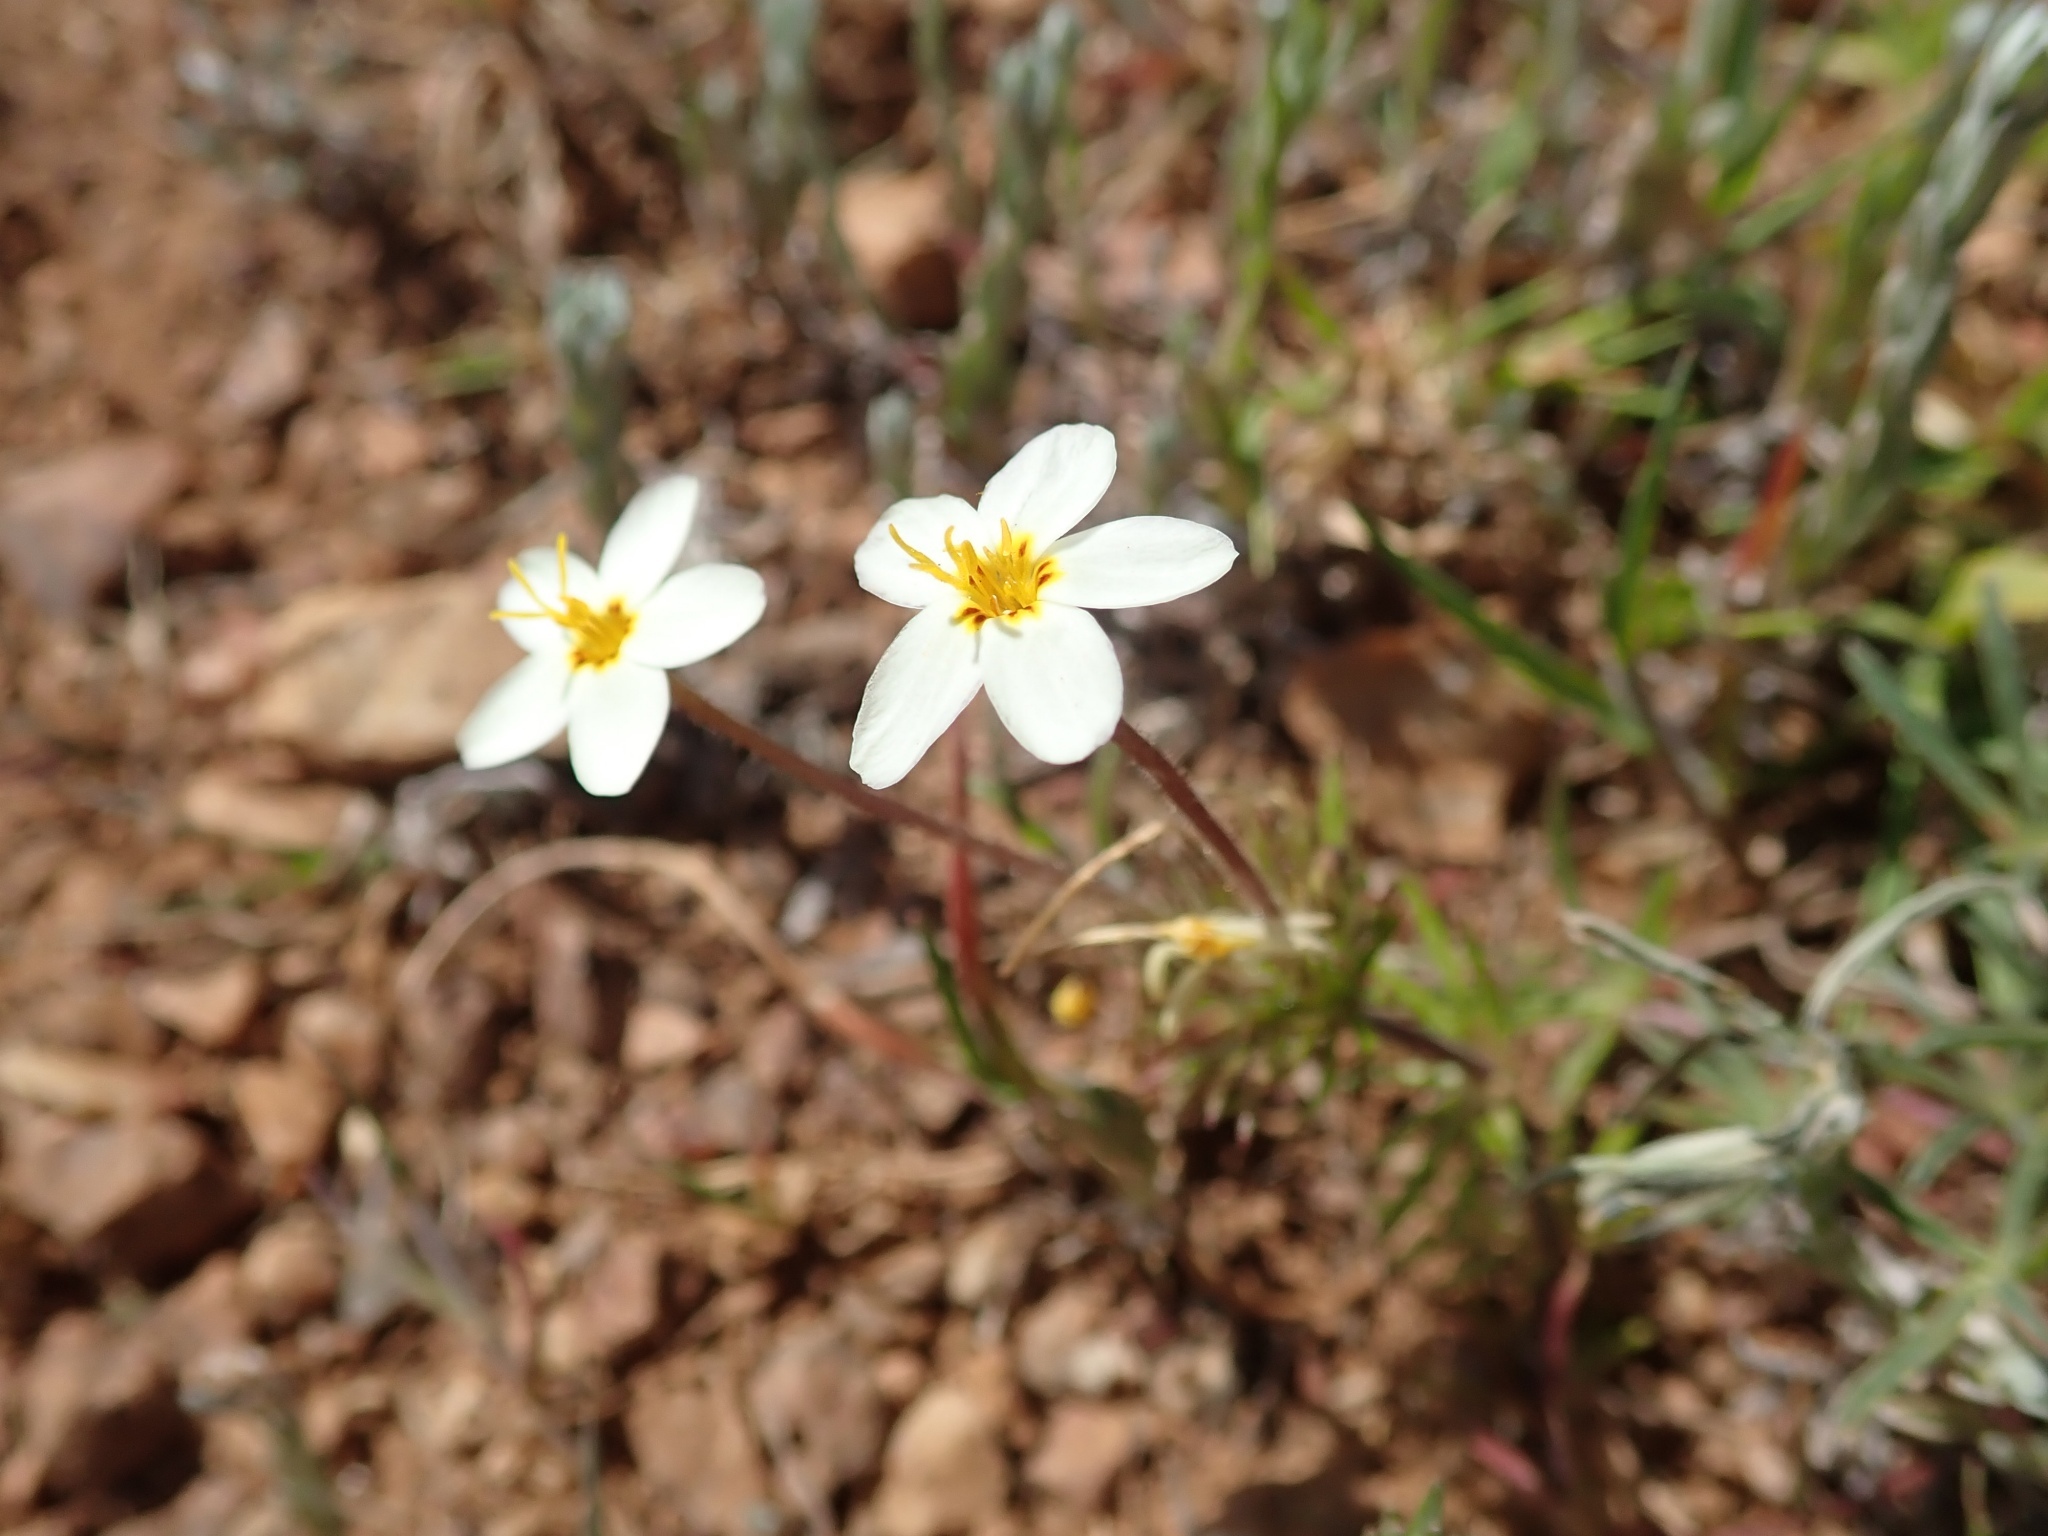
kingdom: Plantae
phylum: Tracheophyta
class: Magnoliopsida
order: Ericales
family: Polemoniaceae
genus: Leptosiphon
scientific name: Leptosiphon parviflorus
